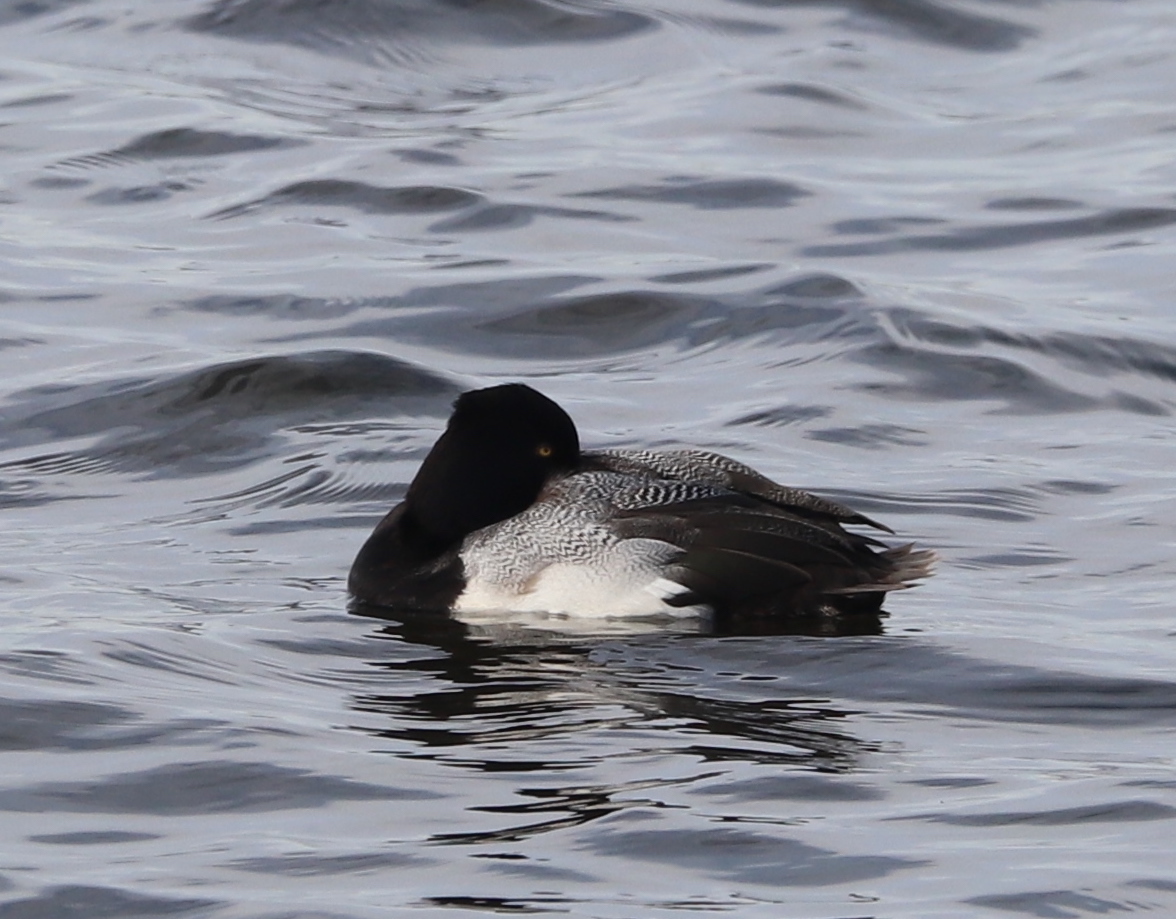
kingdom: Animalia
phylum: Chordata
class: Aves
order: Anseriformes
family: Anatidae
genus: Aythya
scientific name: Aythya affinis
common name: Lesser scaup
